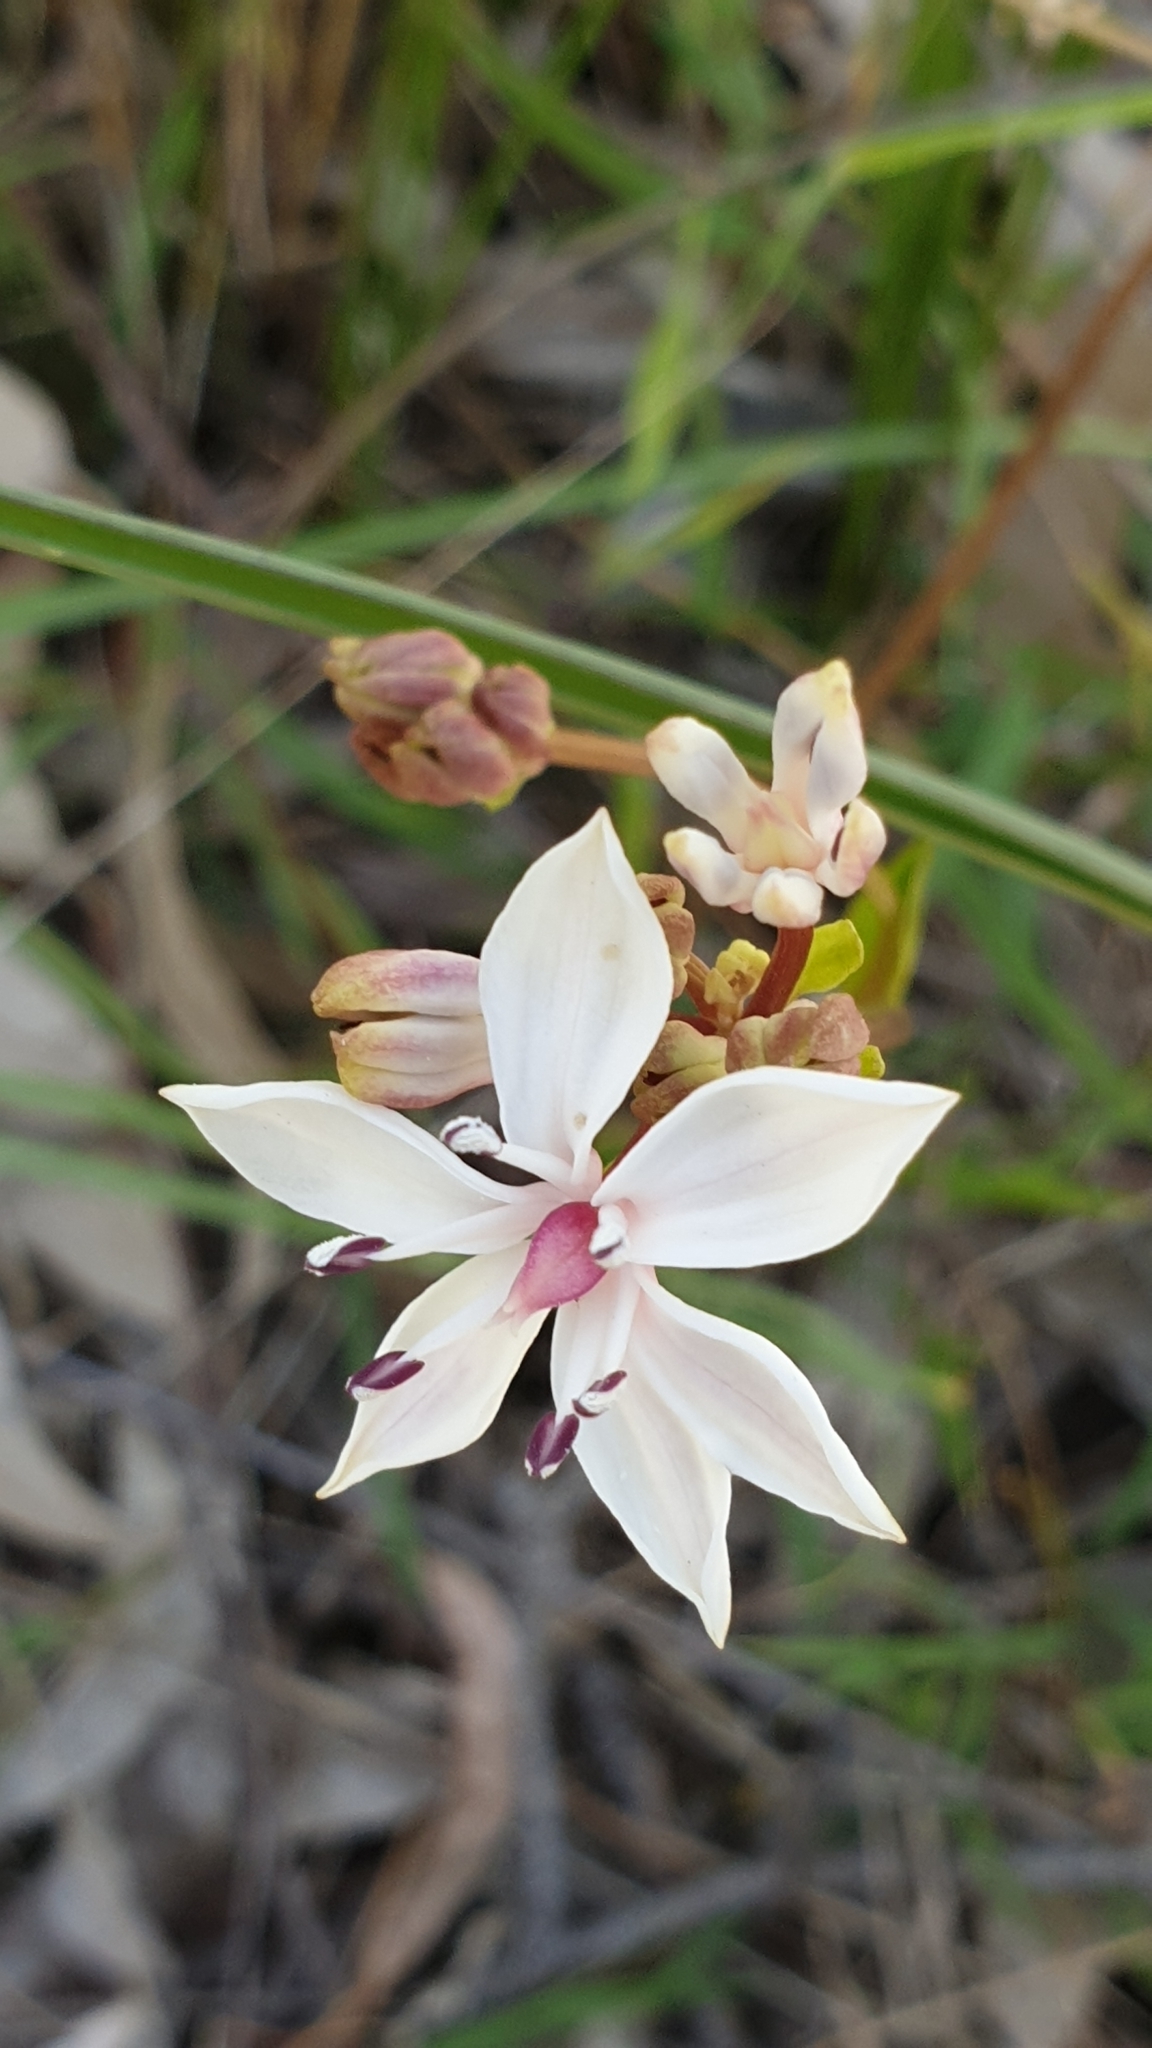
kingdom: Plantae
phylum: Tracheophyta
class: Liliopsida
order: Liliales
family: Colchicaceae
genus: Burchardia
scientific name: Burchardia umbellata
